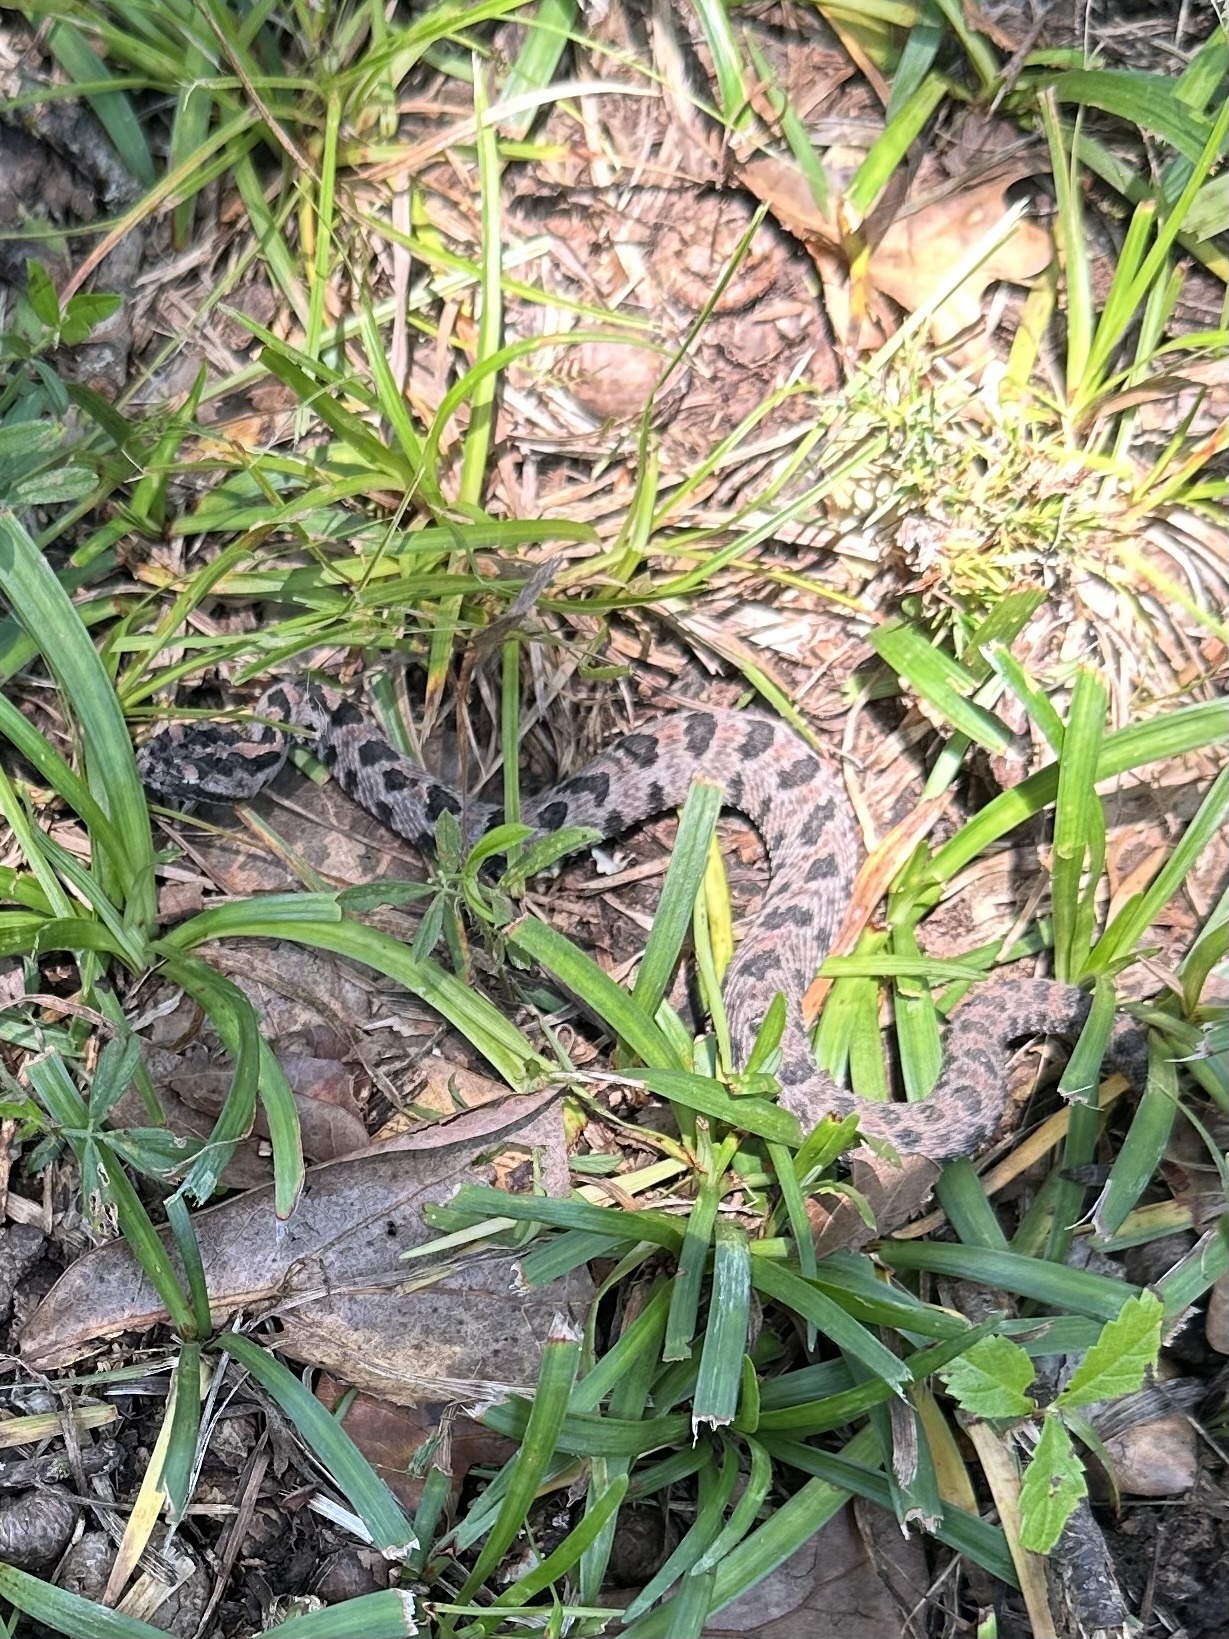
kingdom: Animalia
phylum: Chordata
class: Squamata
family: Viperidae
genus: Sistrurus
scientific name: Sistrurus miliarius
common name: Pygmy rattlesnake
